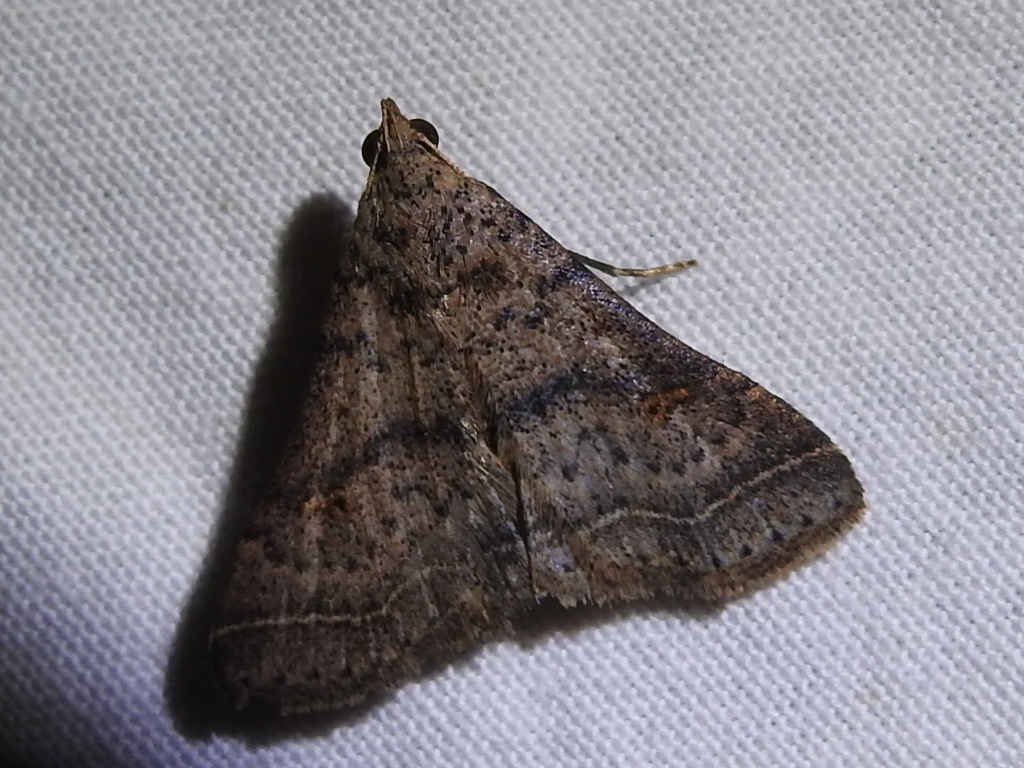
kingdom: Animalia
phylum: Arthropoda
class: Insecta
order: Lepidoptera
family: Erebidae
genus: Bleptina
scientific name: Bleptina caradrinalis
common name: Bent-winged owlet
